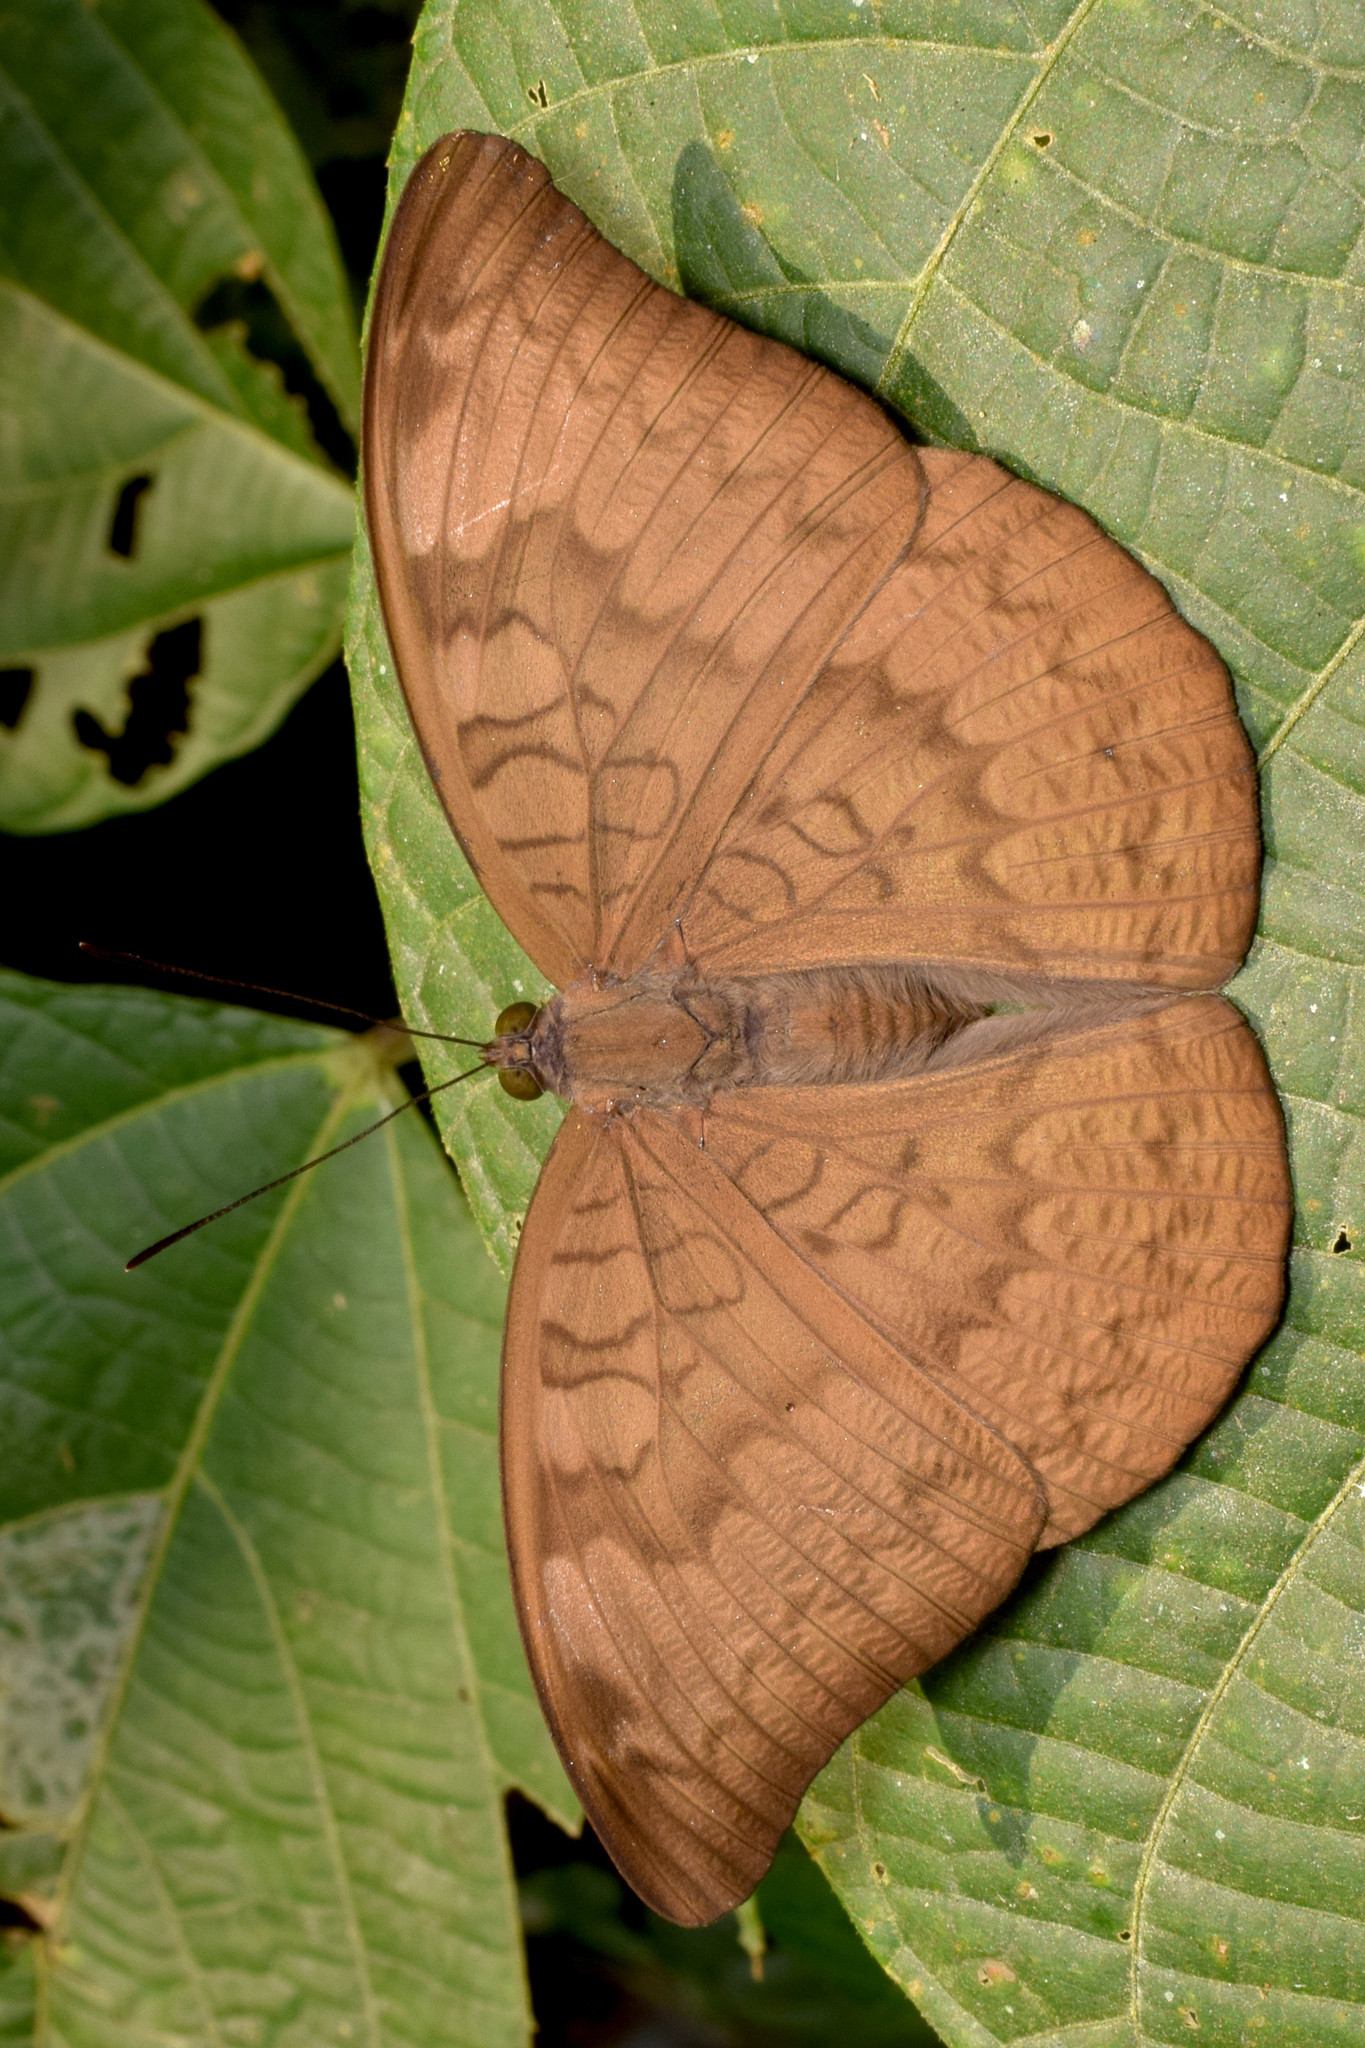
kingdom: Animalia
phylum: Arthropoda
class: Insecta
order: Lepidoptera
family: Nymphalidae
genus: Euthalia
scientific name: Euthalia aconthea
